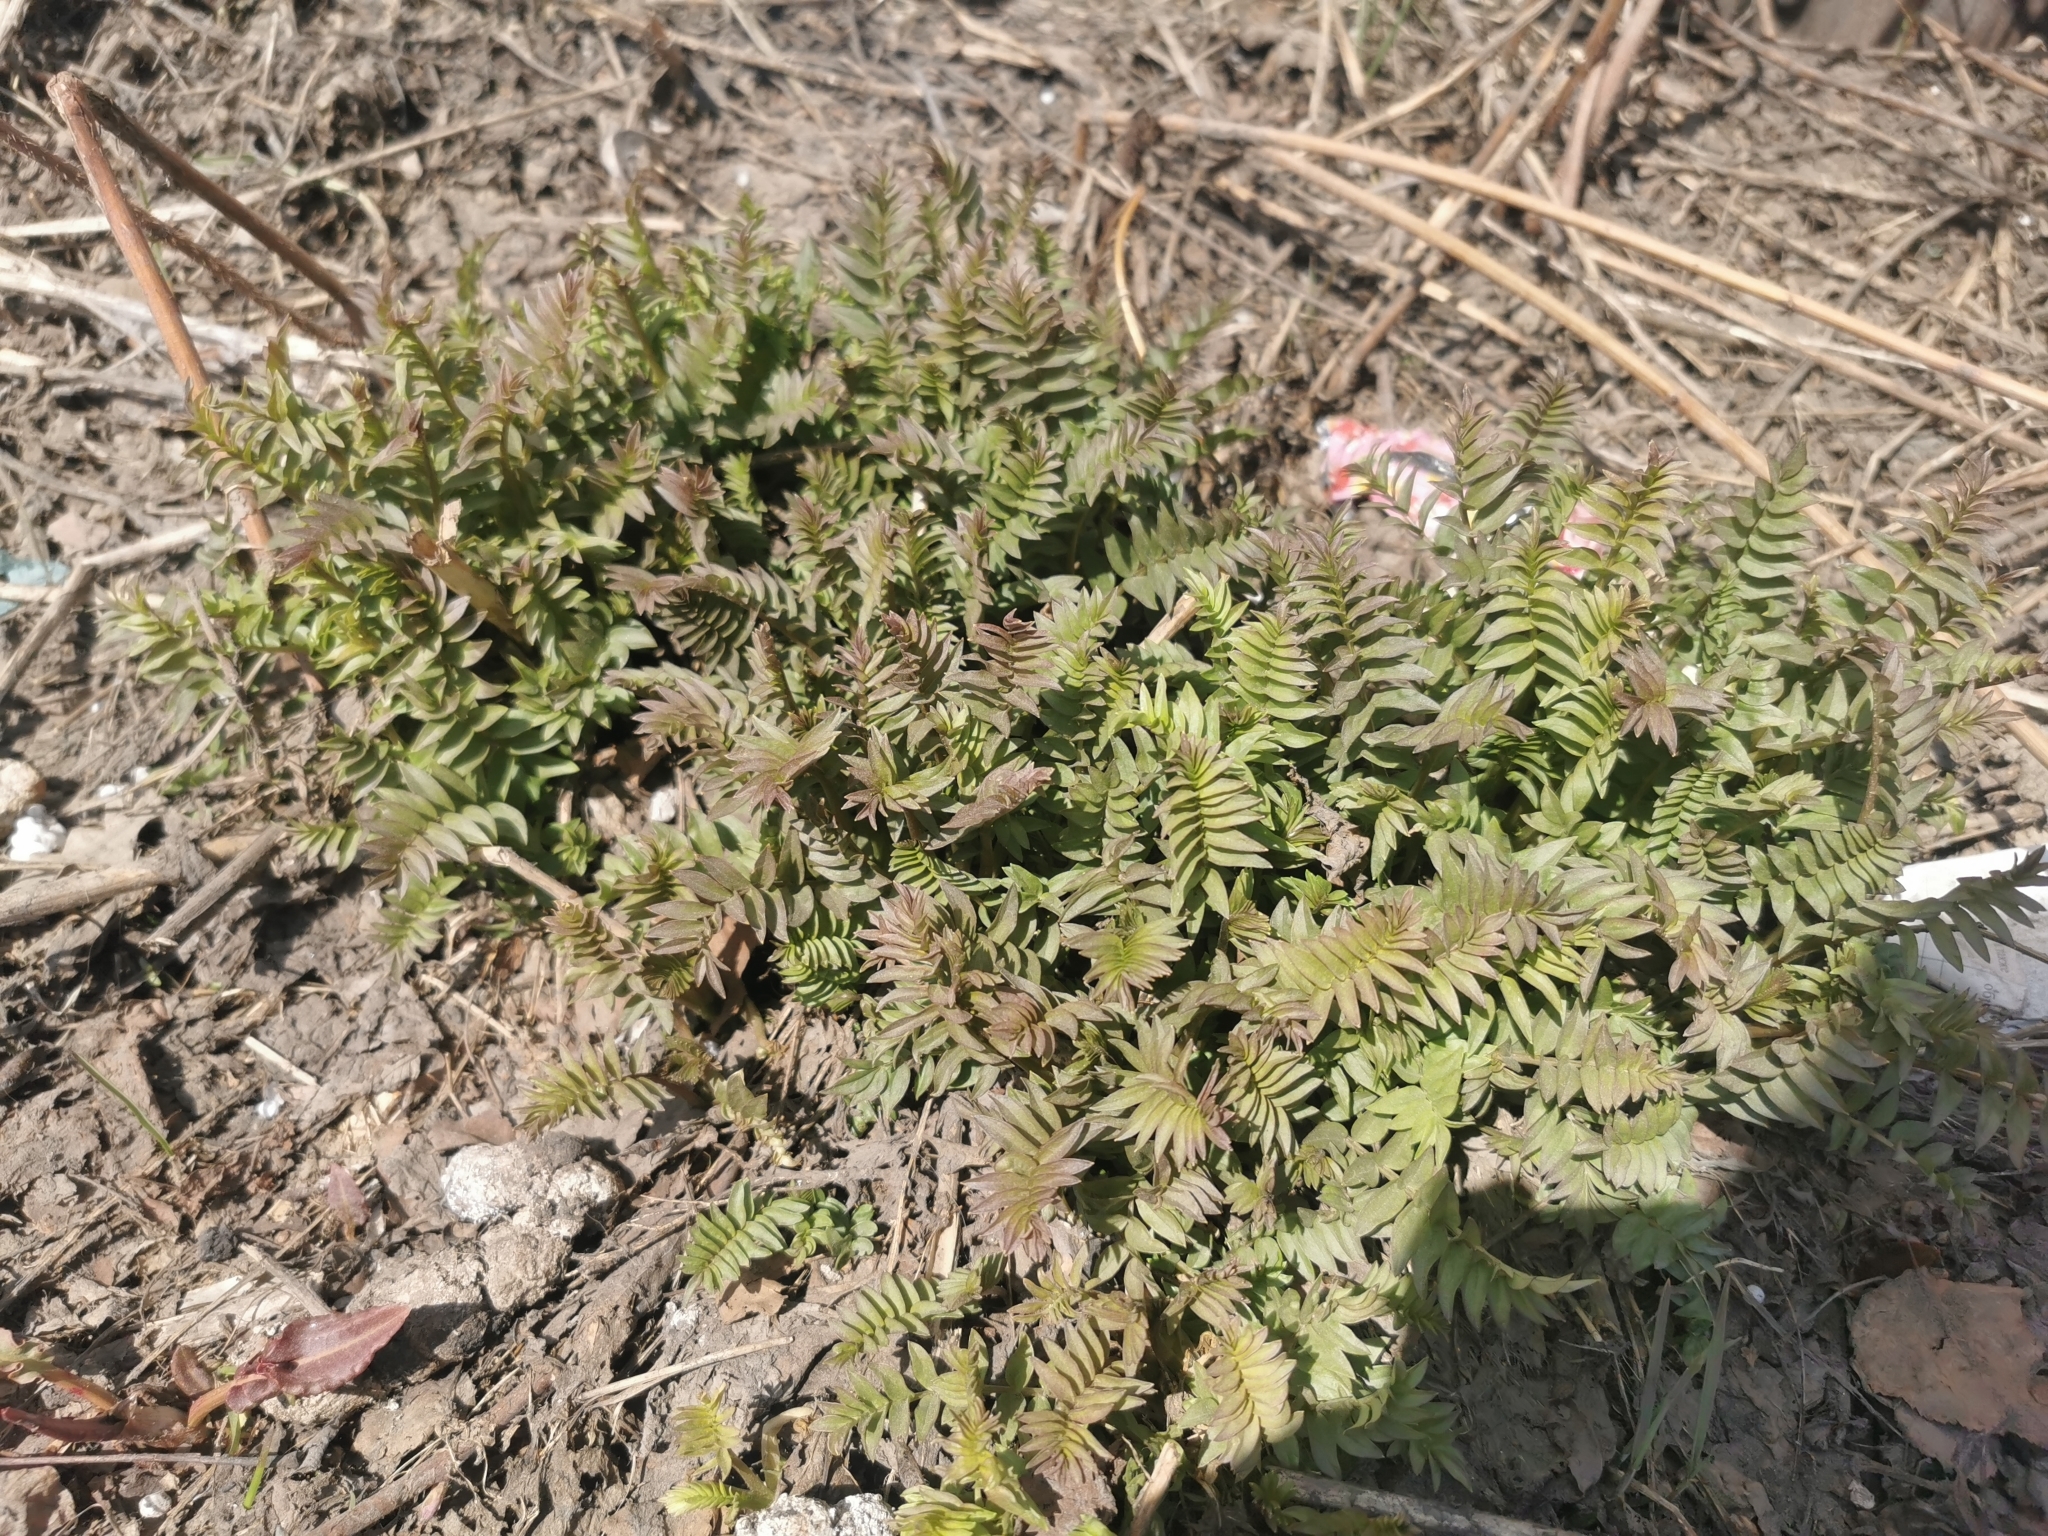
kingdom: Plantae
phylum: Tracheophyta
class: Magnoliopsida
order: Ericales
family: Polemoniaceae
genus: Polemonium
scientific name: Polemonium caeruleum
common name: Jacob's-ladder
